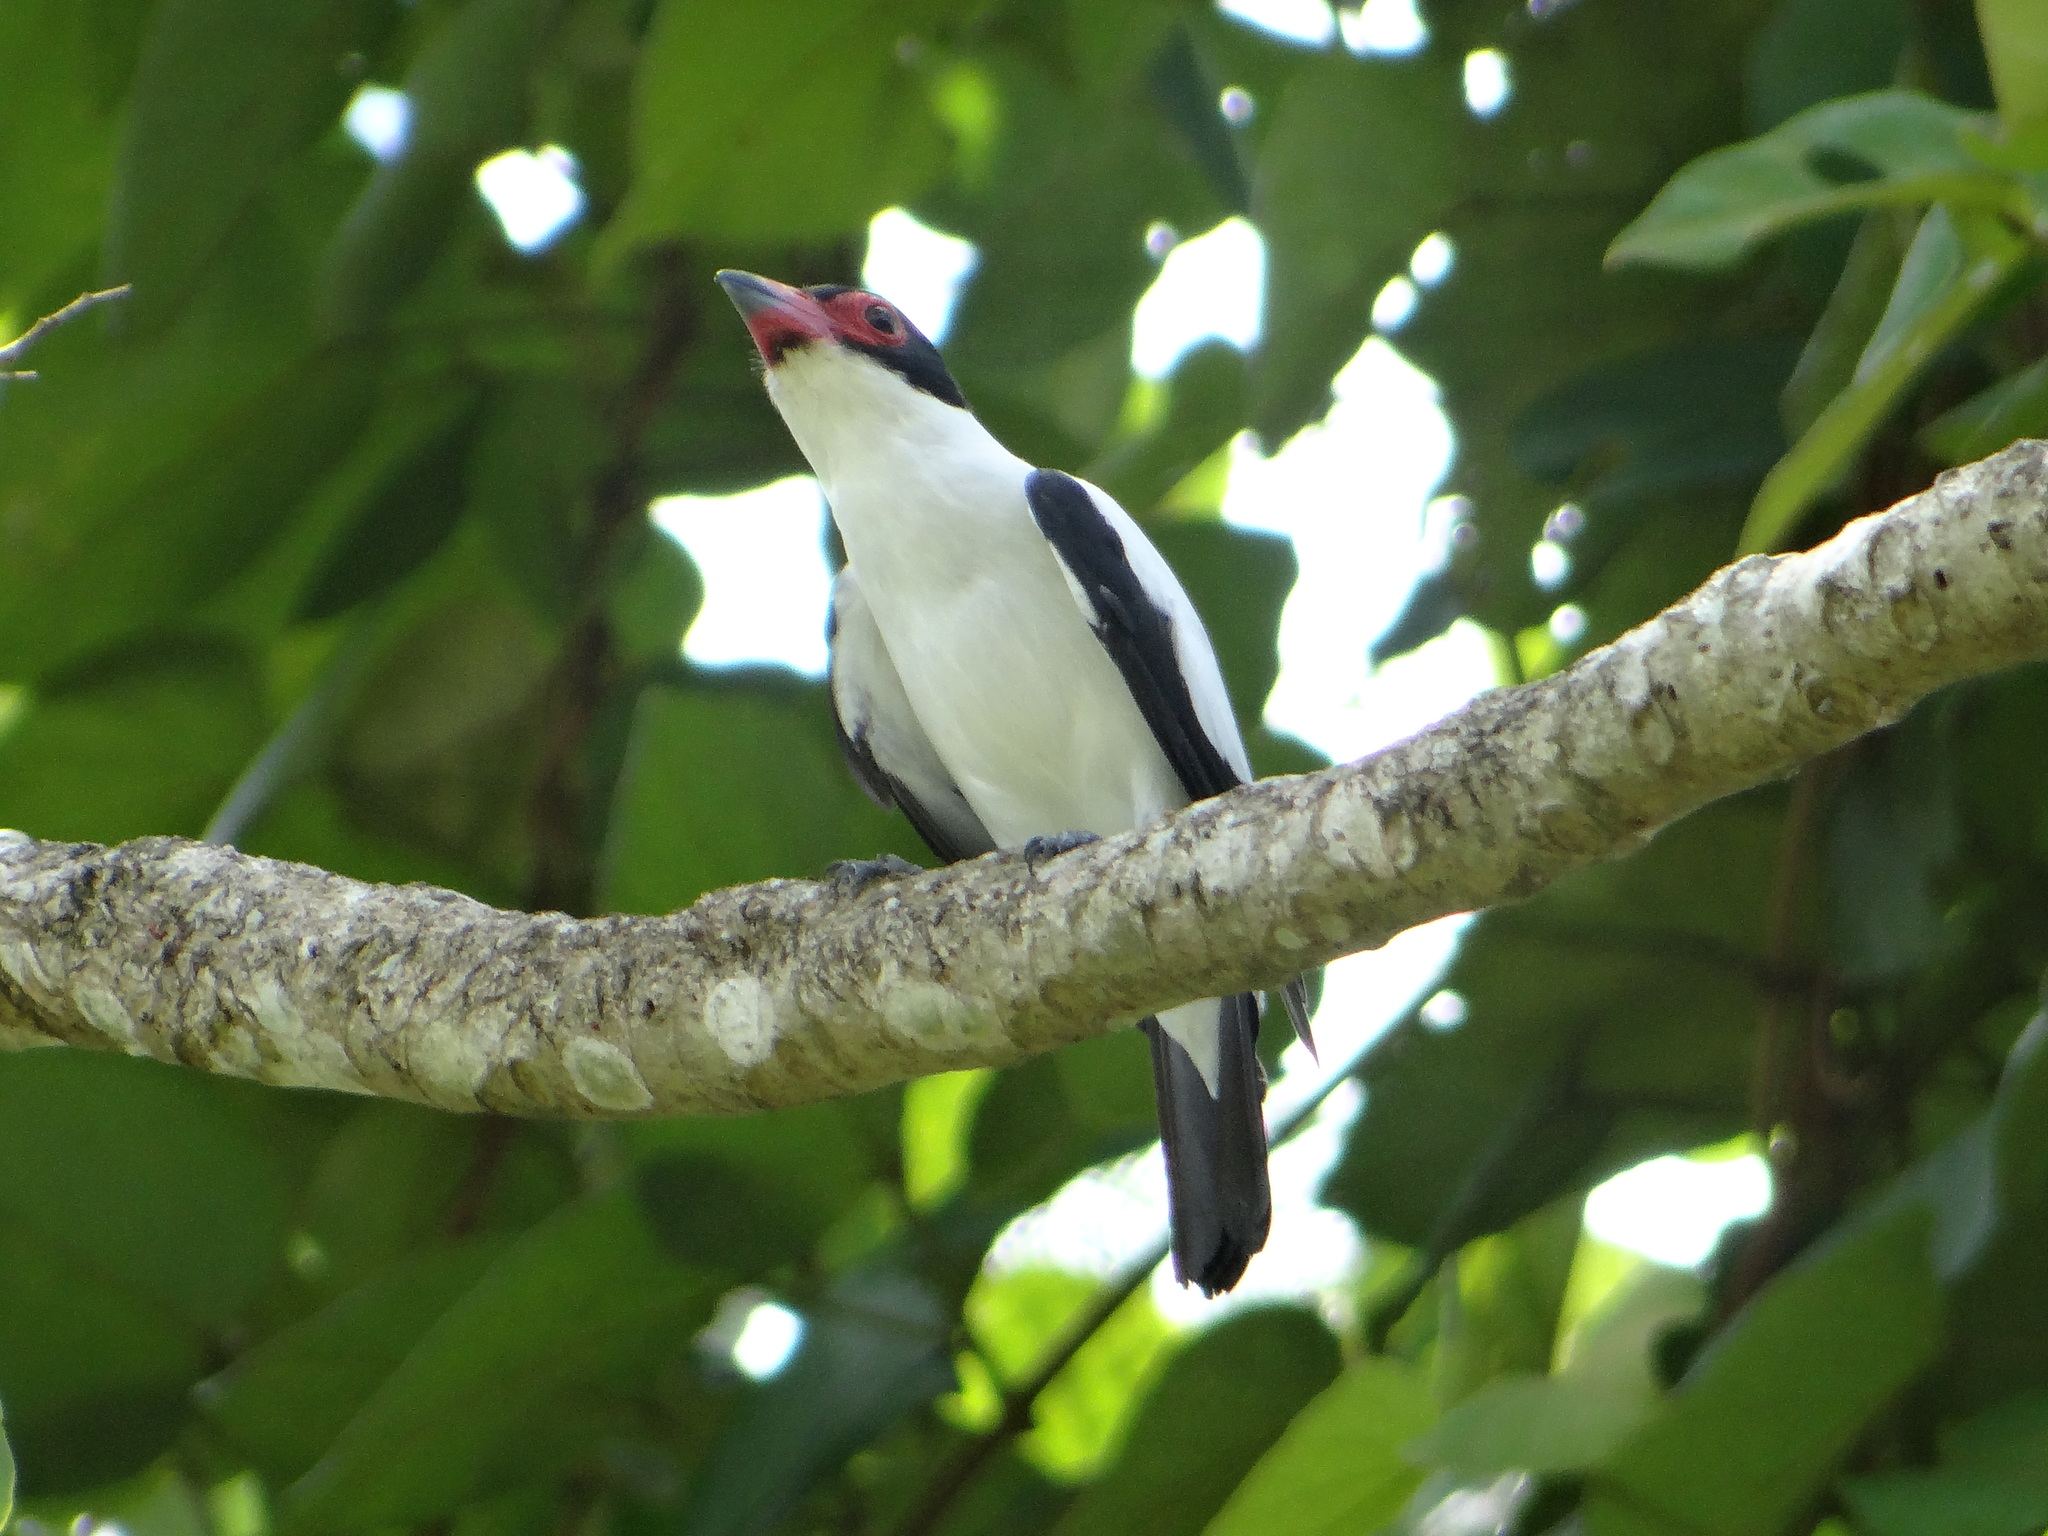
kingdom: Animalia
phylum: Chordata
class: Aves
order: Passeriformes
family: Cotingidae
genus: Tityra
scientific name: Tityra cayana
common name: Black-tailed tityra
